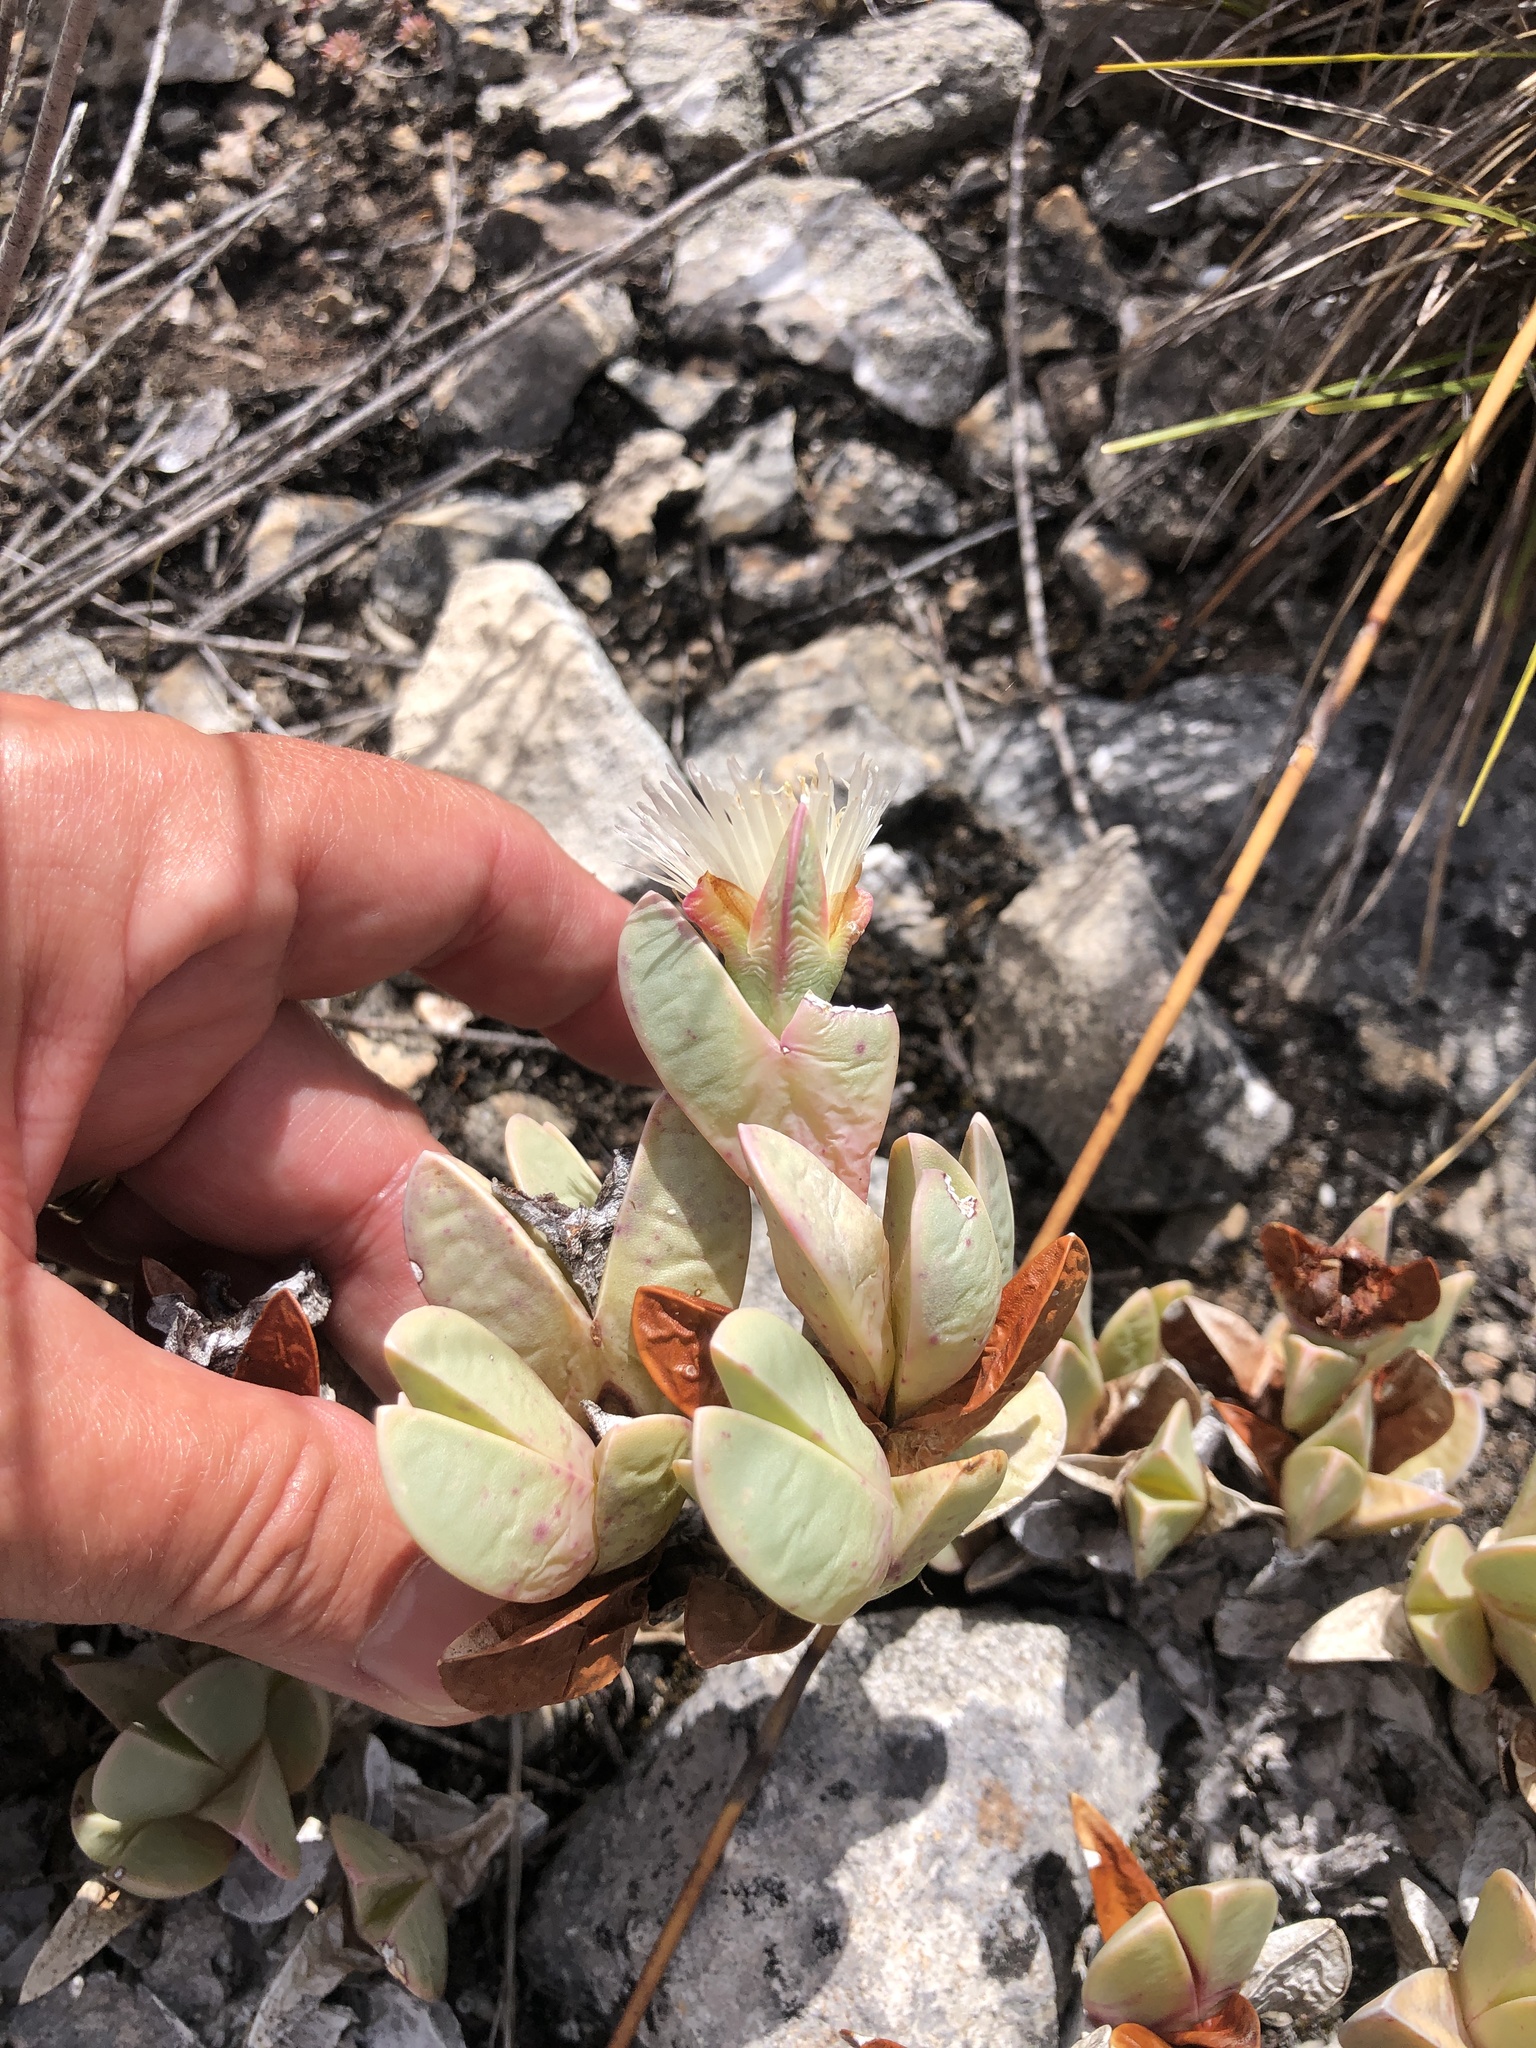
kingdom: Plantae
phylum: Tracheophyta
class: Magnoliopsida
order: Caryophyllales
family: Aizoaceae
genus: Braunsia
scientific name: Braunsia vanrensburgii
